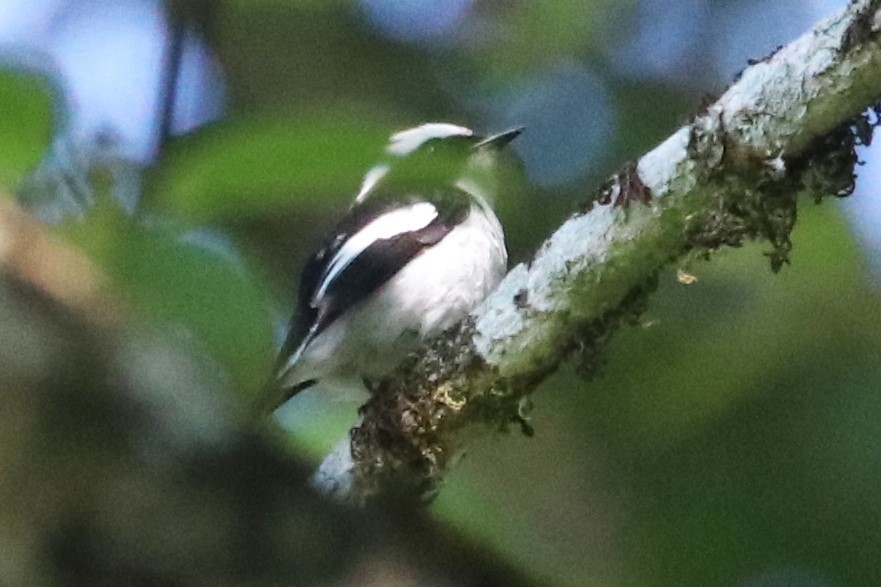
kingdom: Animalia
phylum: Chordata
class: Aves
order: Passeriformes
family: Muscicapidae
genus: Ficedula
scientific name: Ficedula westermanni
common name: Little pied flycatcher
